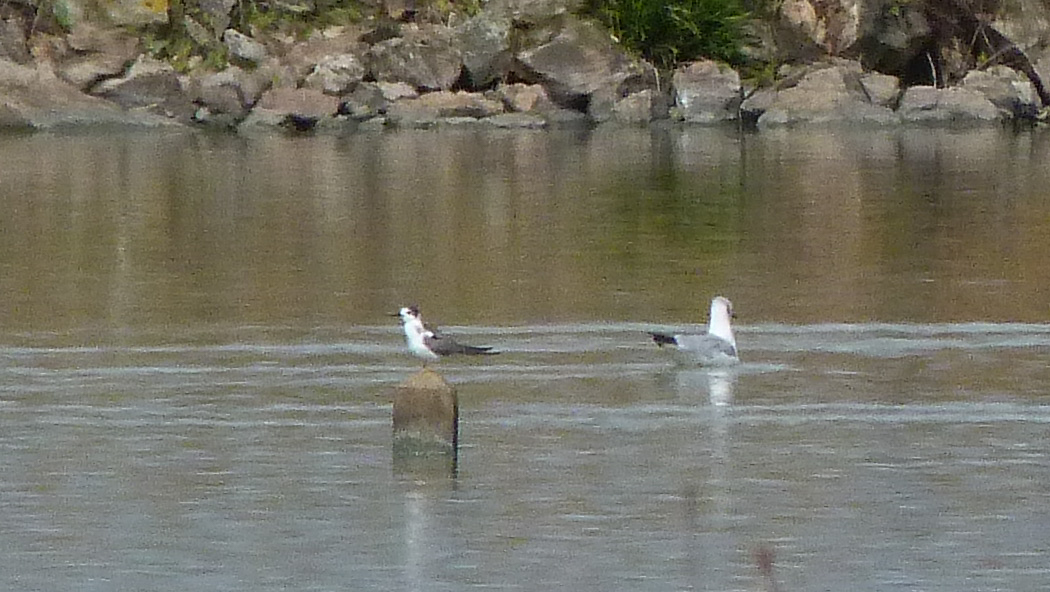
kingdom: Animalia
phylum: Chordata
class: Aves
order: Charadriiformes
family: Laridae
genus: Chlidonias
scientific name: Chlidonias niger
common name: Black tern
